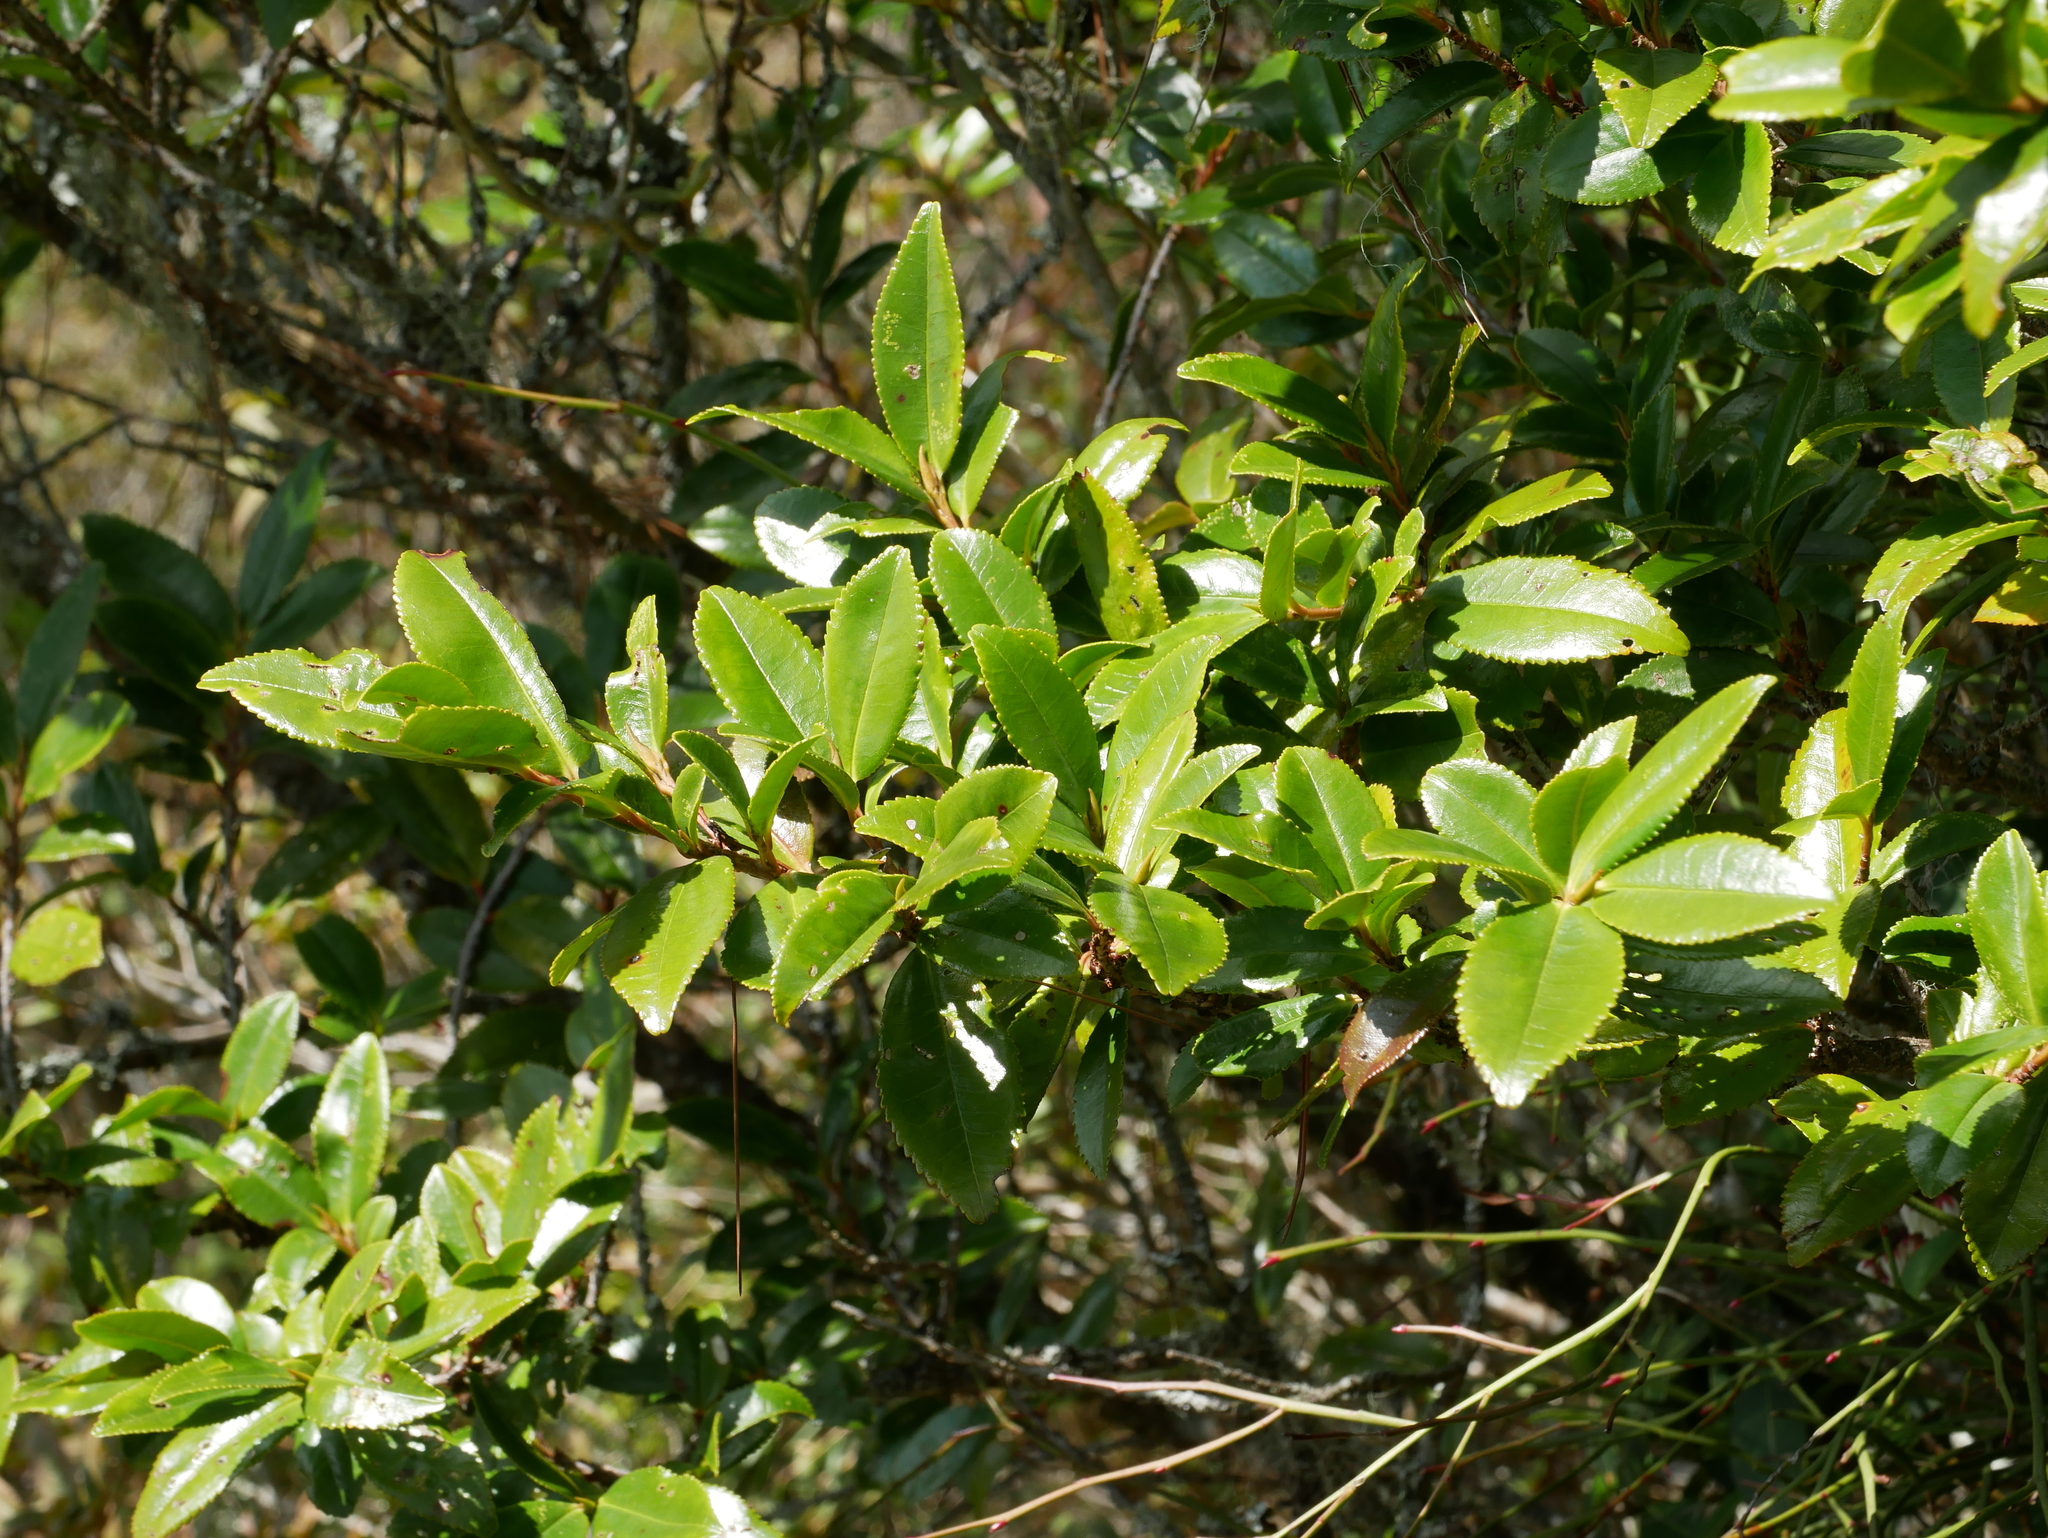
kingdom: Plantae
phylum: Tracheophyta
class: Magnoliopsida
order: Ericales
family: Pentaphylacaceae
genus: Eurya
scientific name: Eurya glaberrima
